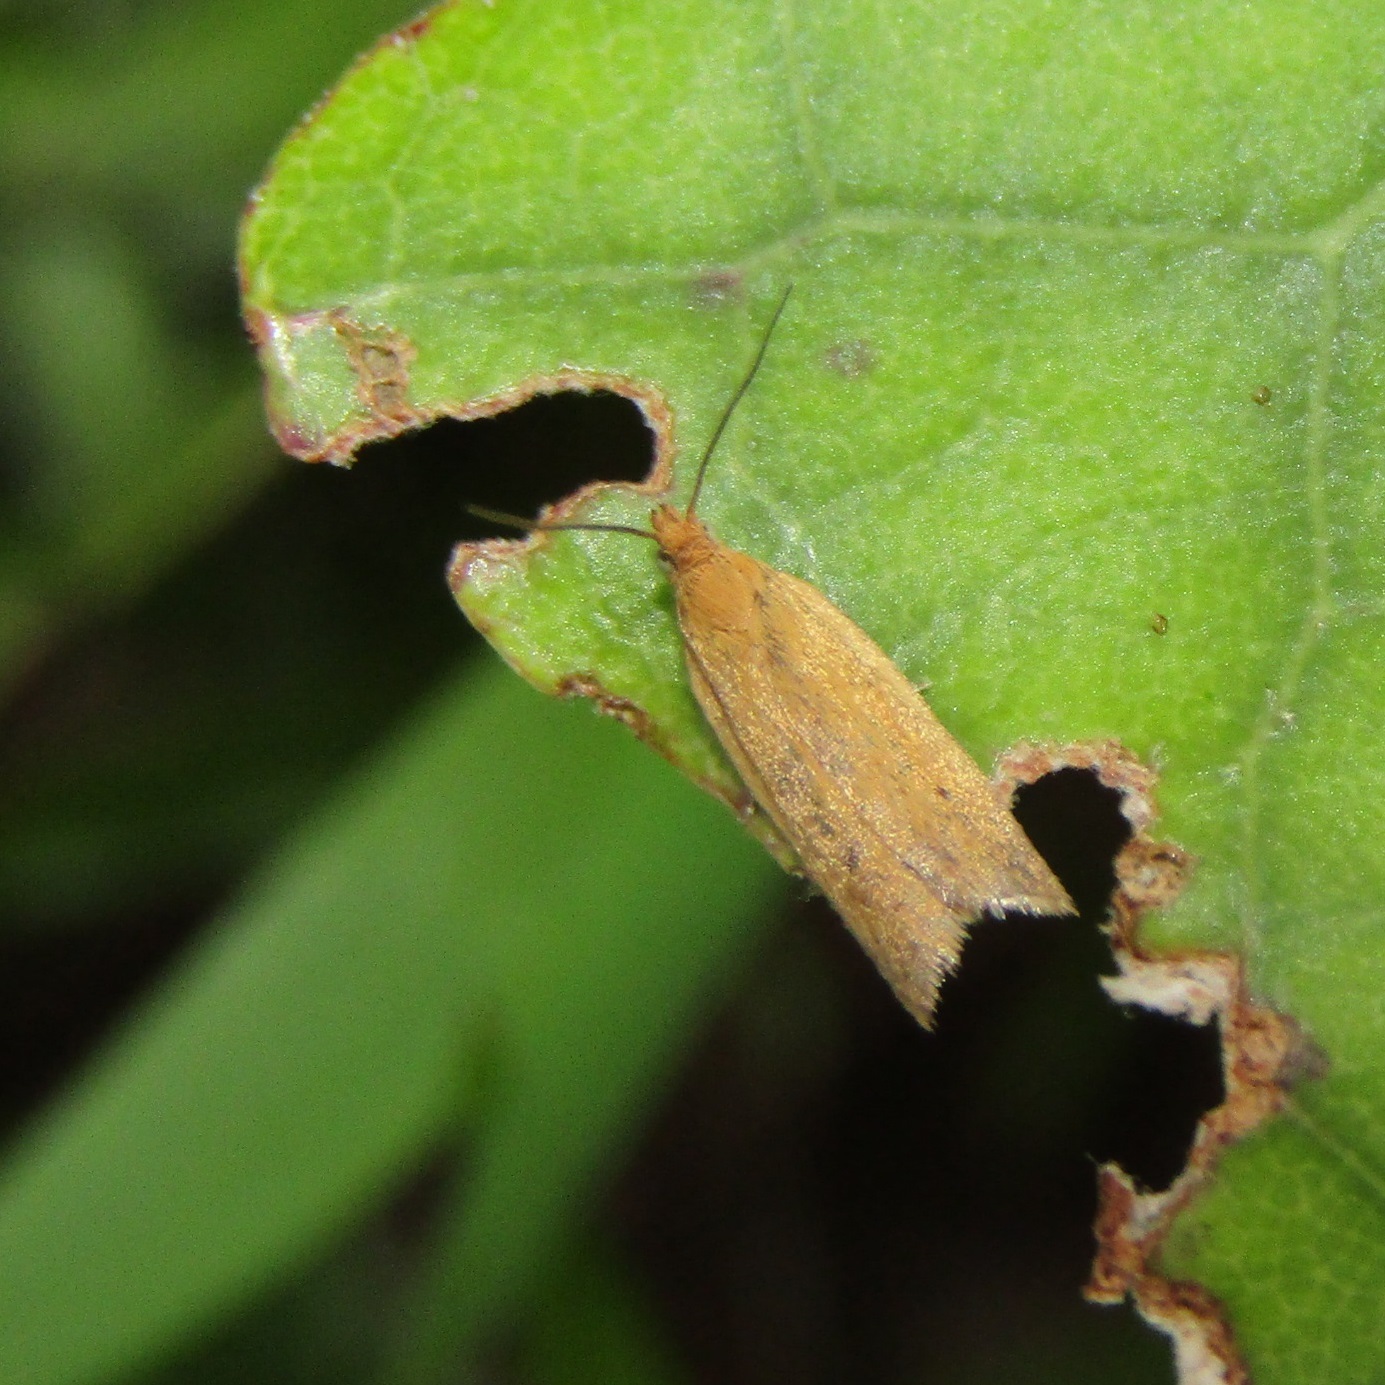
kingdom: Animalia
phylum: Arthropoda
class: Insecta
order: Lepidoptera
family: Tortricidae
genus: Epichorista
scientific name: Epichorista siriana
